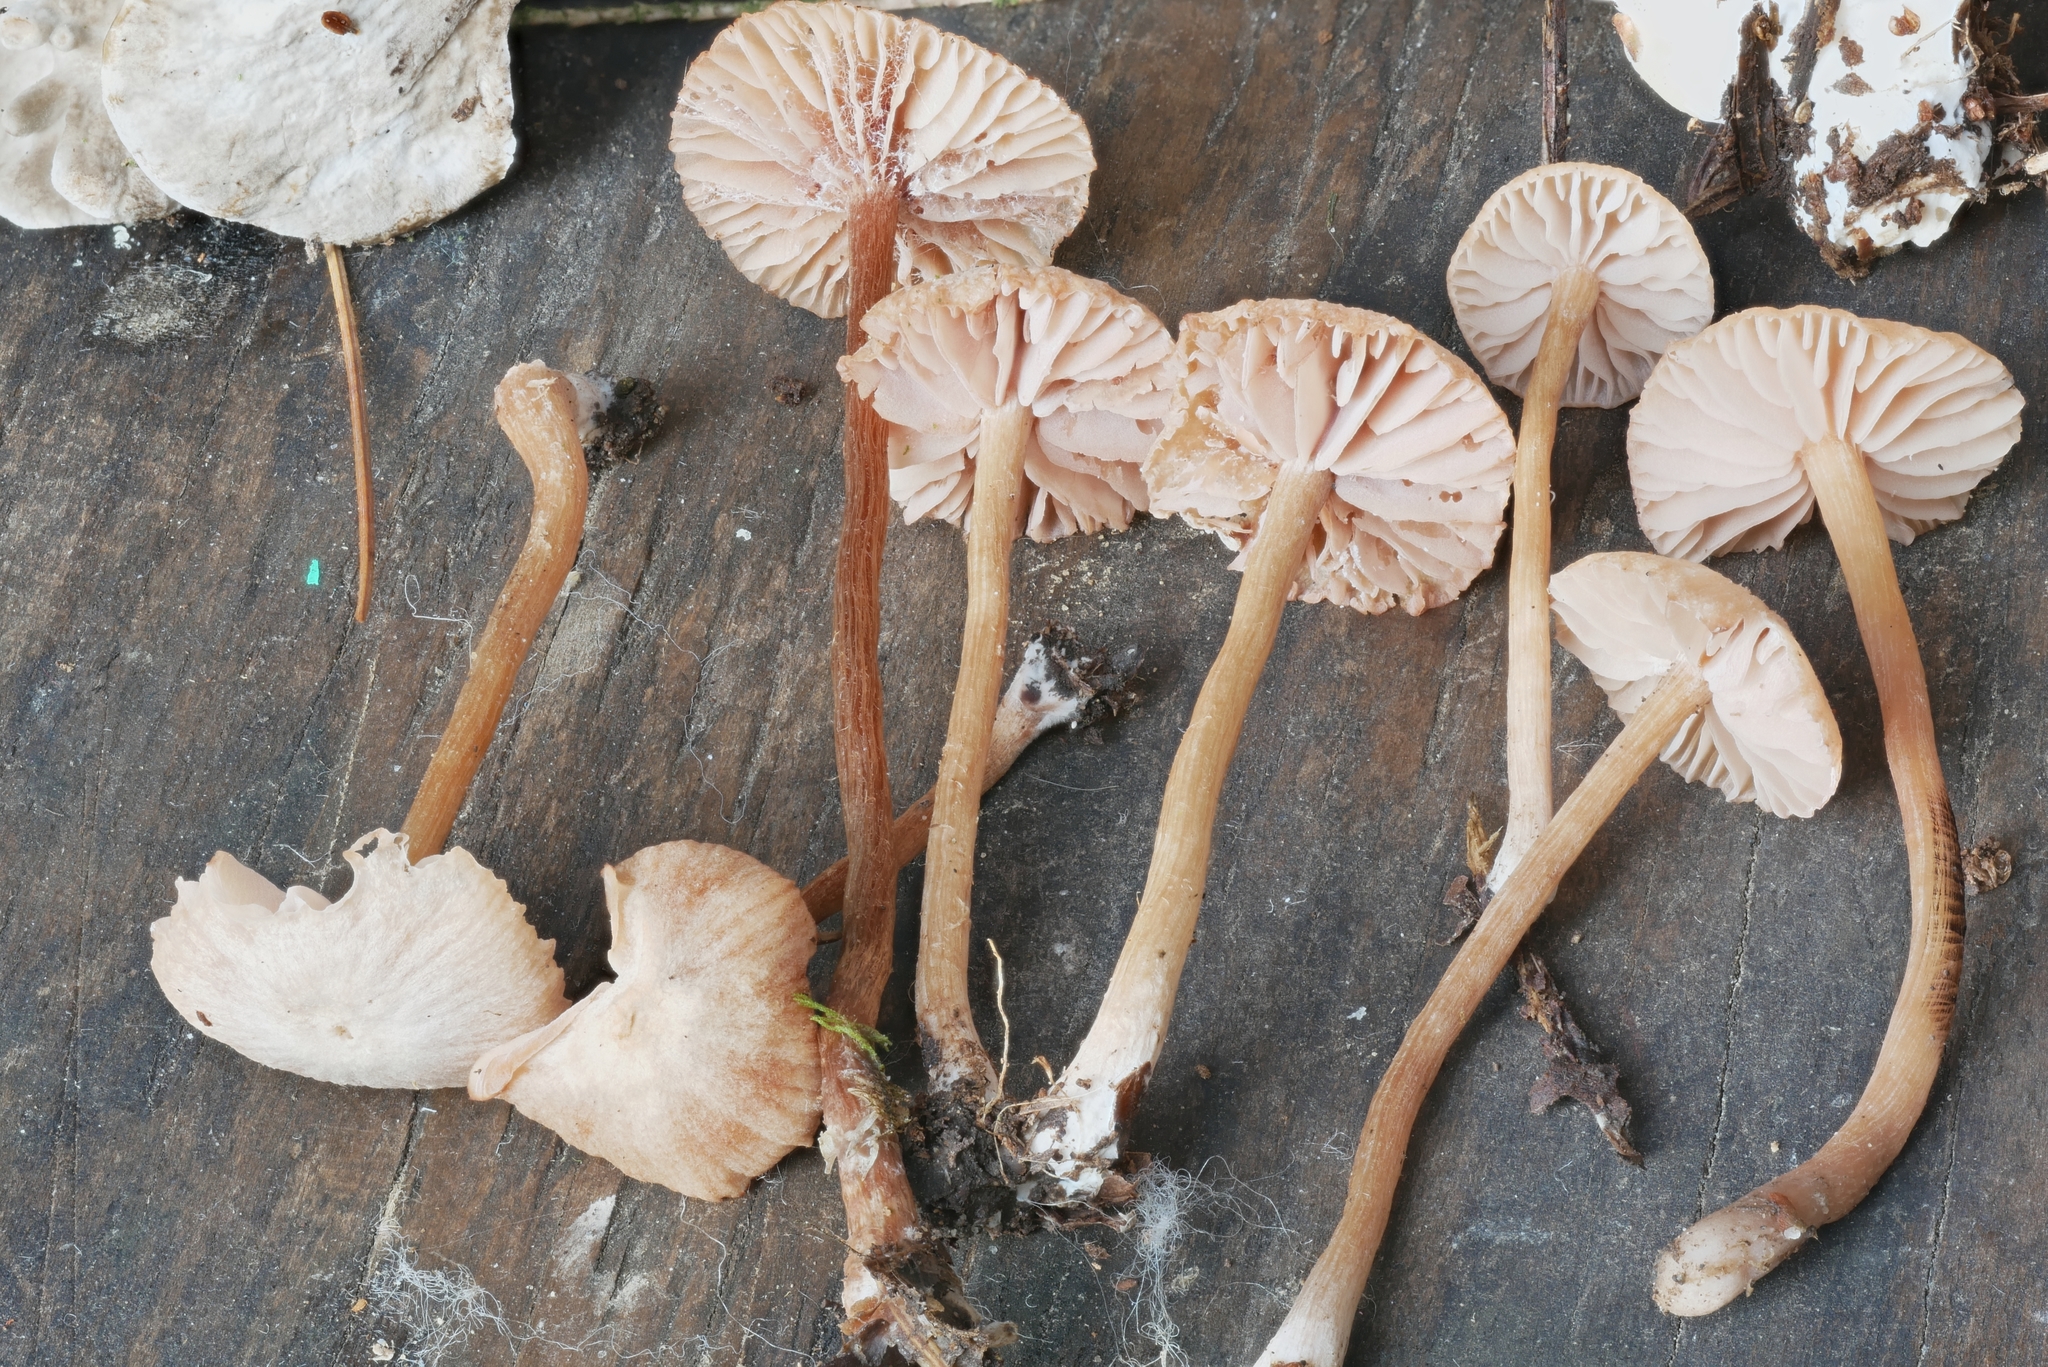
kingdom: Fungi
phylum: Basidiomycota
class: Agaricomycetes
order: Agaricales
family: Hydnangiaceae
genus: Laccaria
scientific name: Laccaria tortilis
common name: Twisted deceiver
